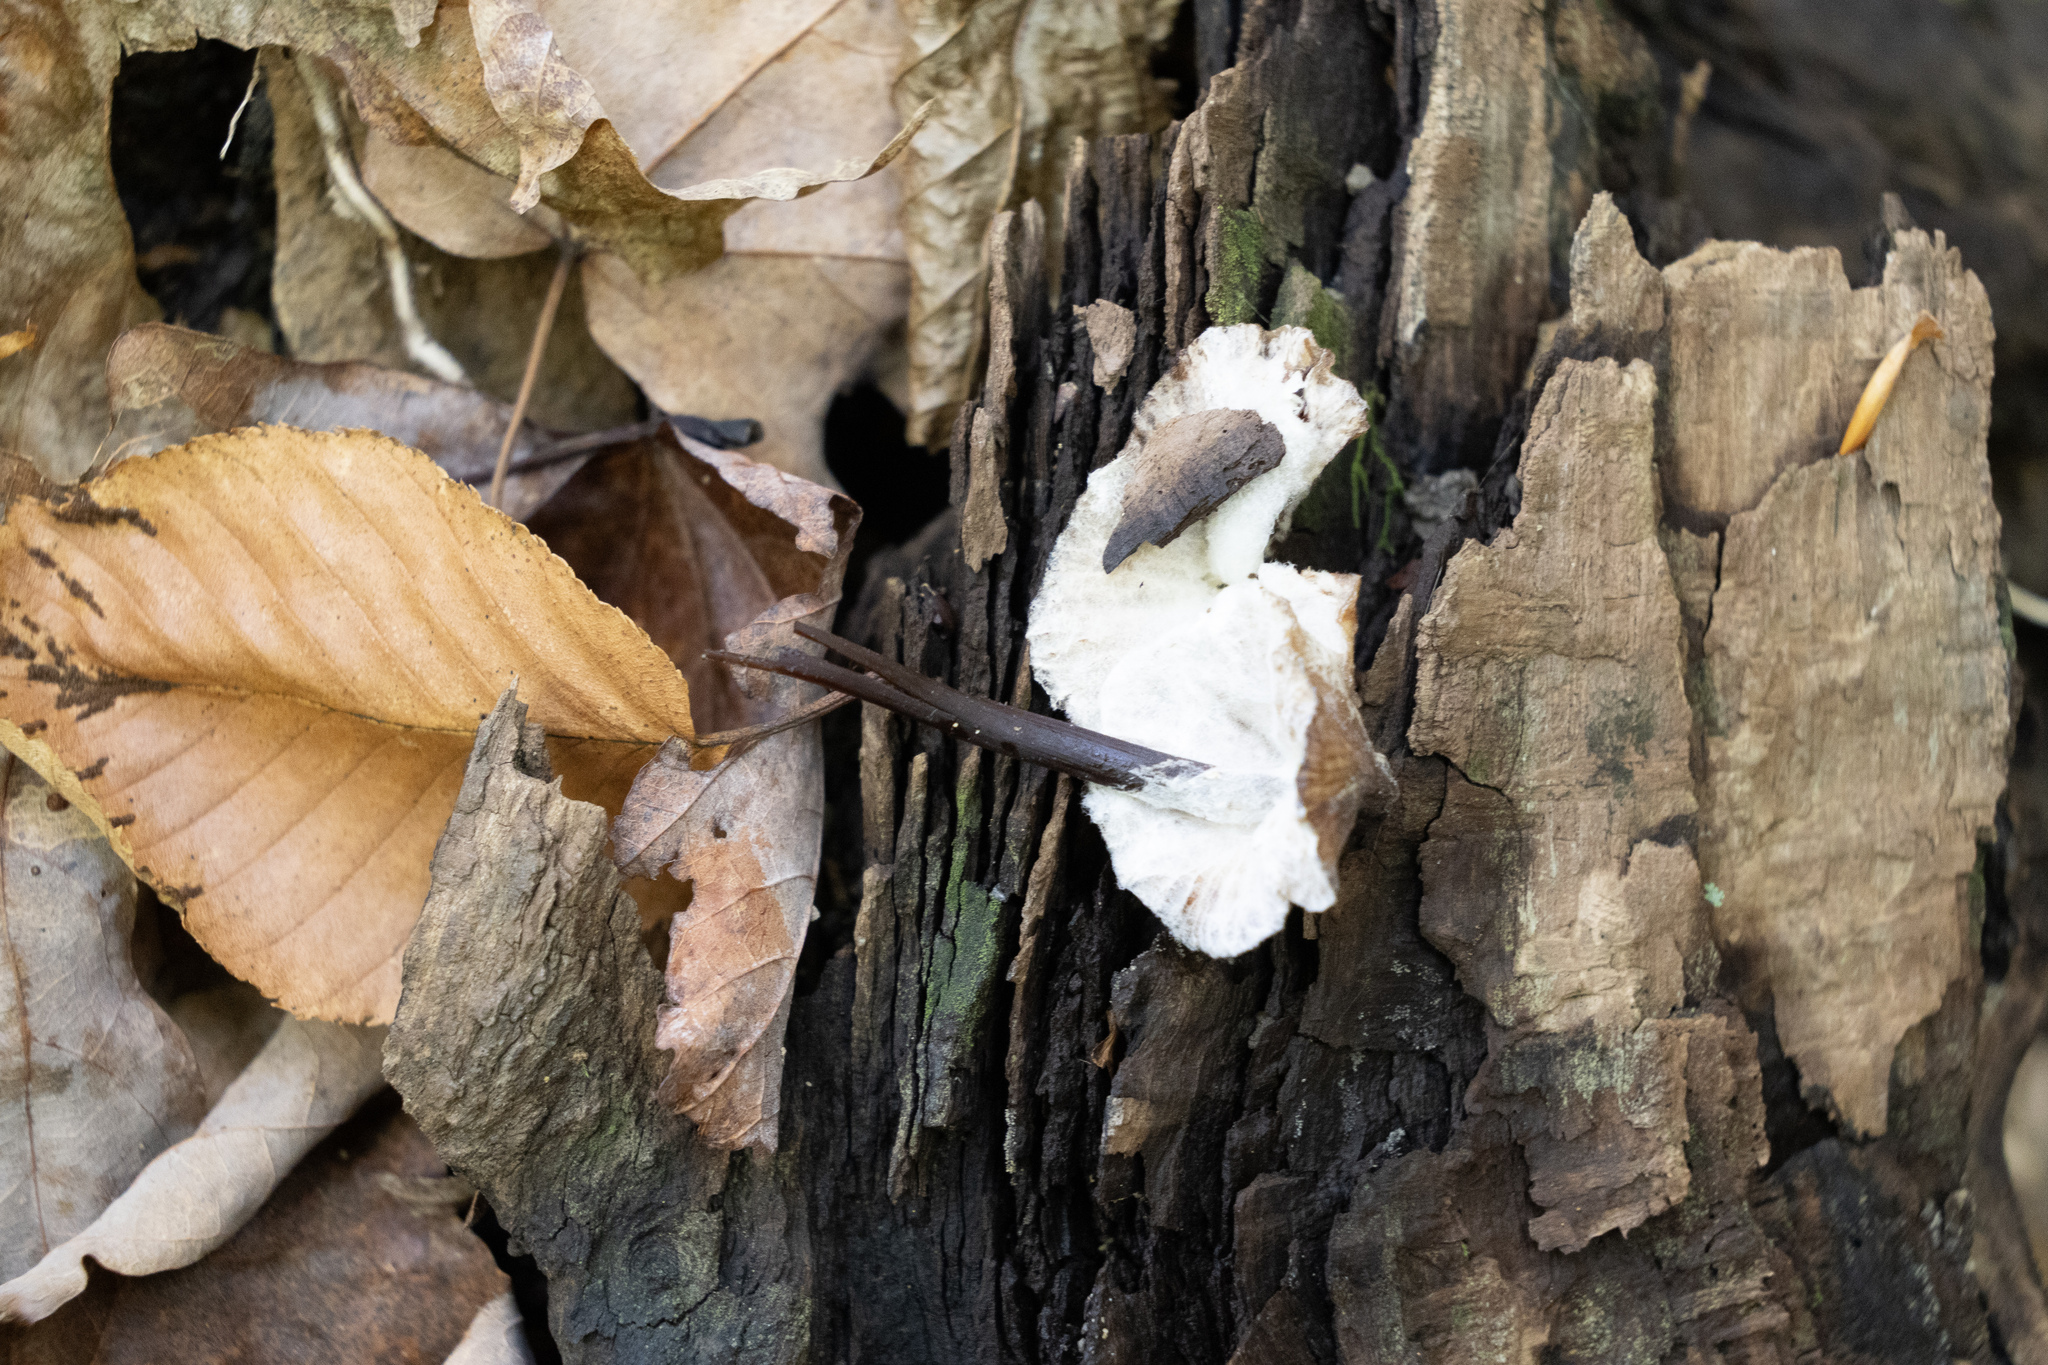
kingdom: Fungi
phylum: Mucoromycota
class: Mucoromycetes
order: Mucorales
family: Phycomycetaceae
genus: Spinellus
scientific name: Spinellus fusiger
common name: Bonnet mould
